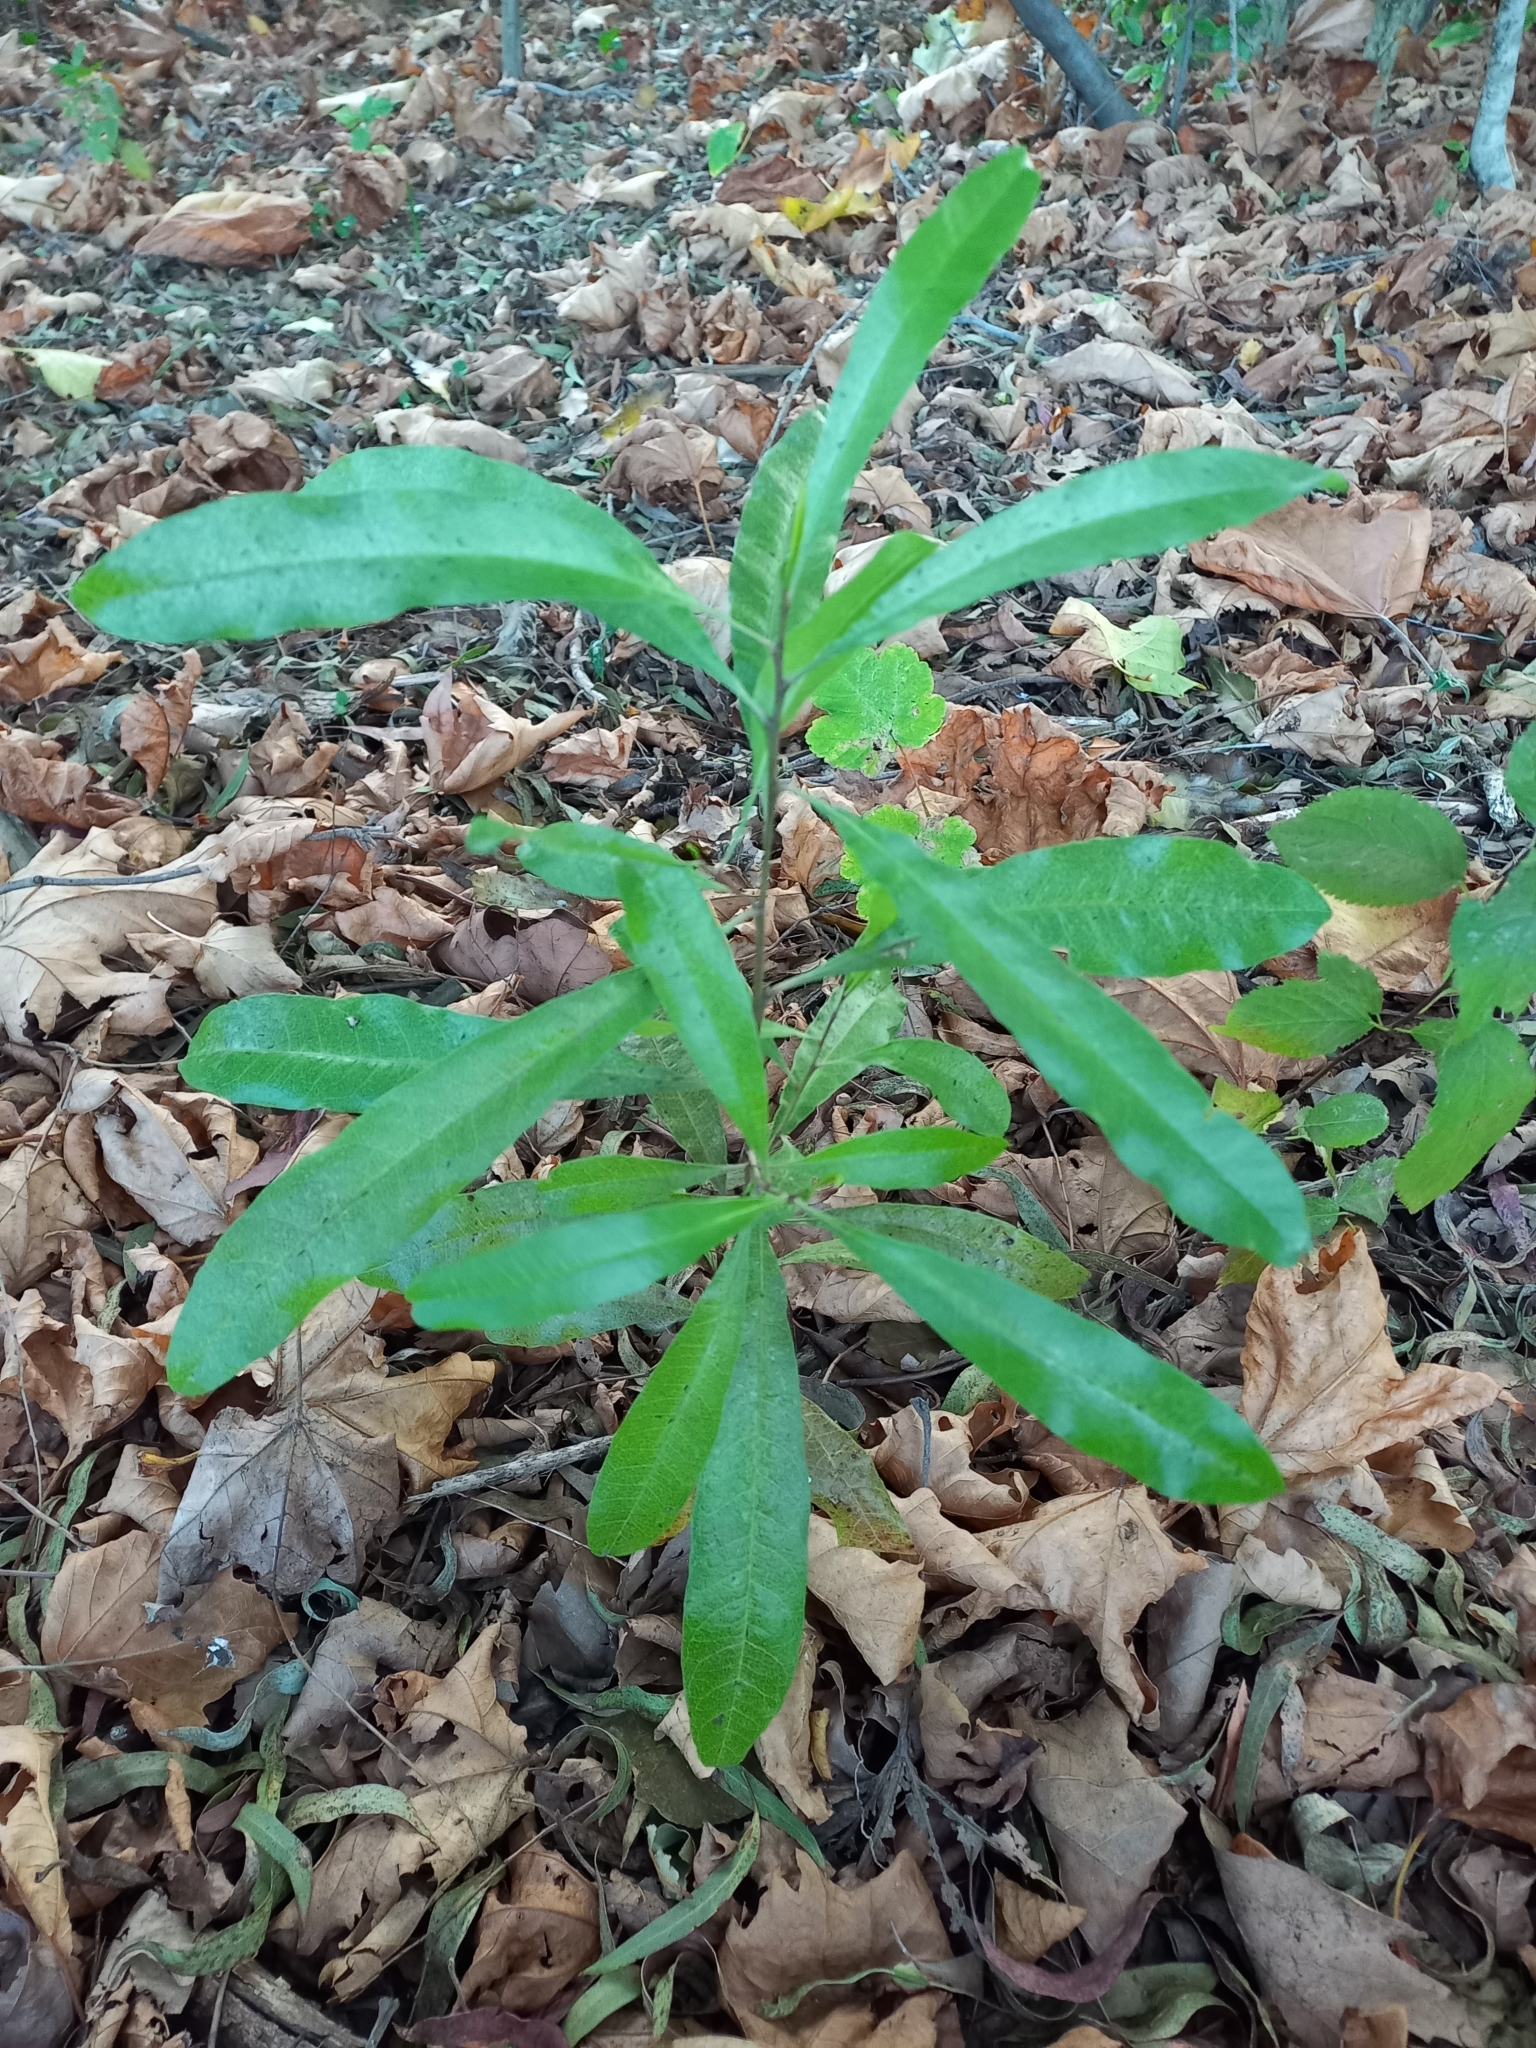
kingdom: Plantae
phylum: Tracheophyta
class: Magnoliopsida
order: Sapindales
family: Sapindaceae
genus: Dodonaea
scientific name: Dodonaea viscosa
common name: Hopbush
